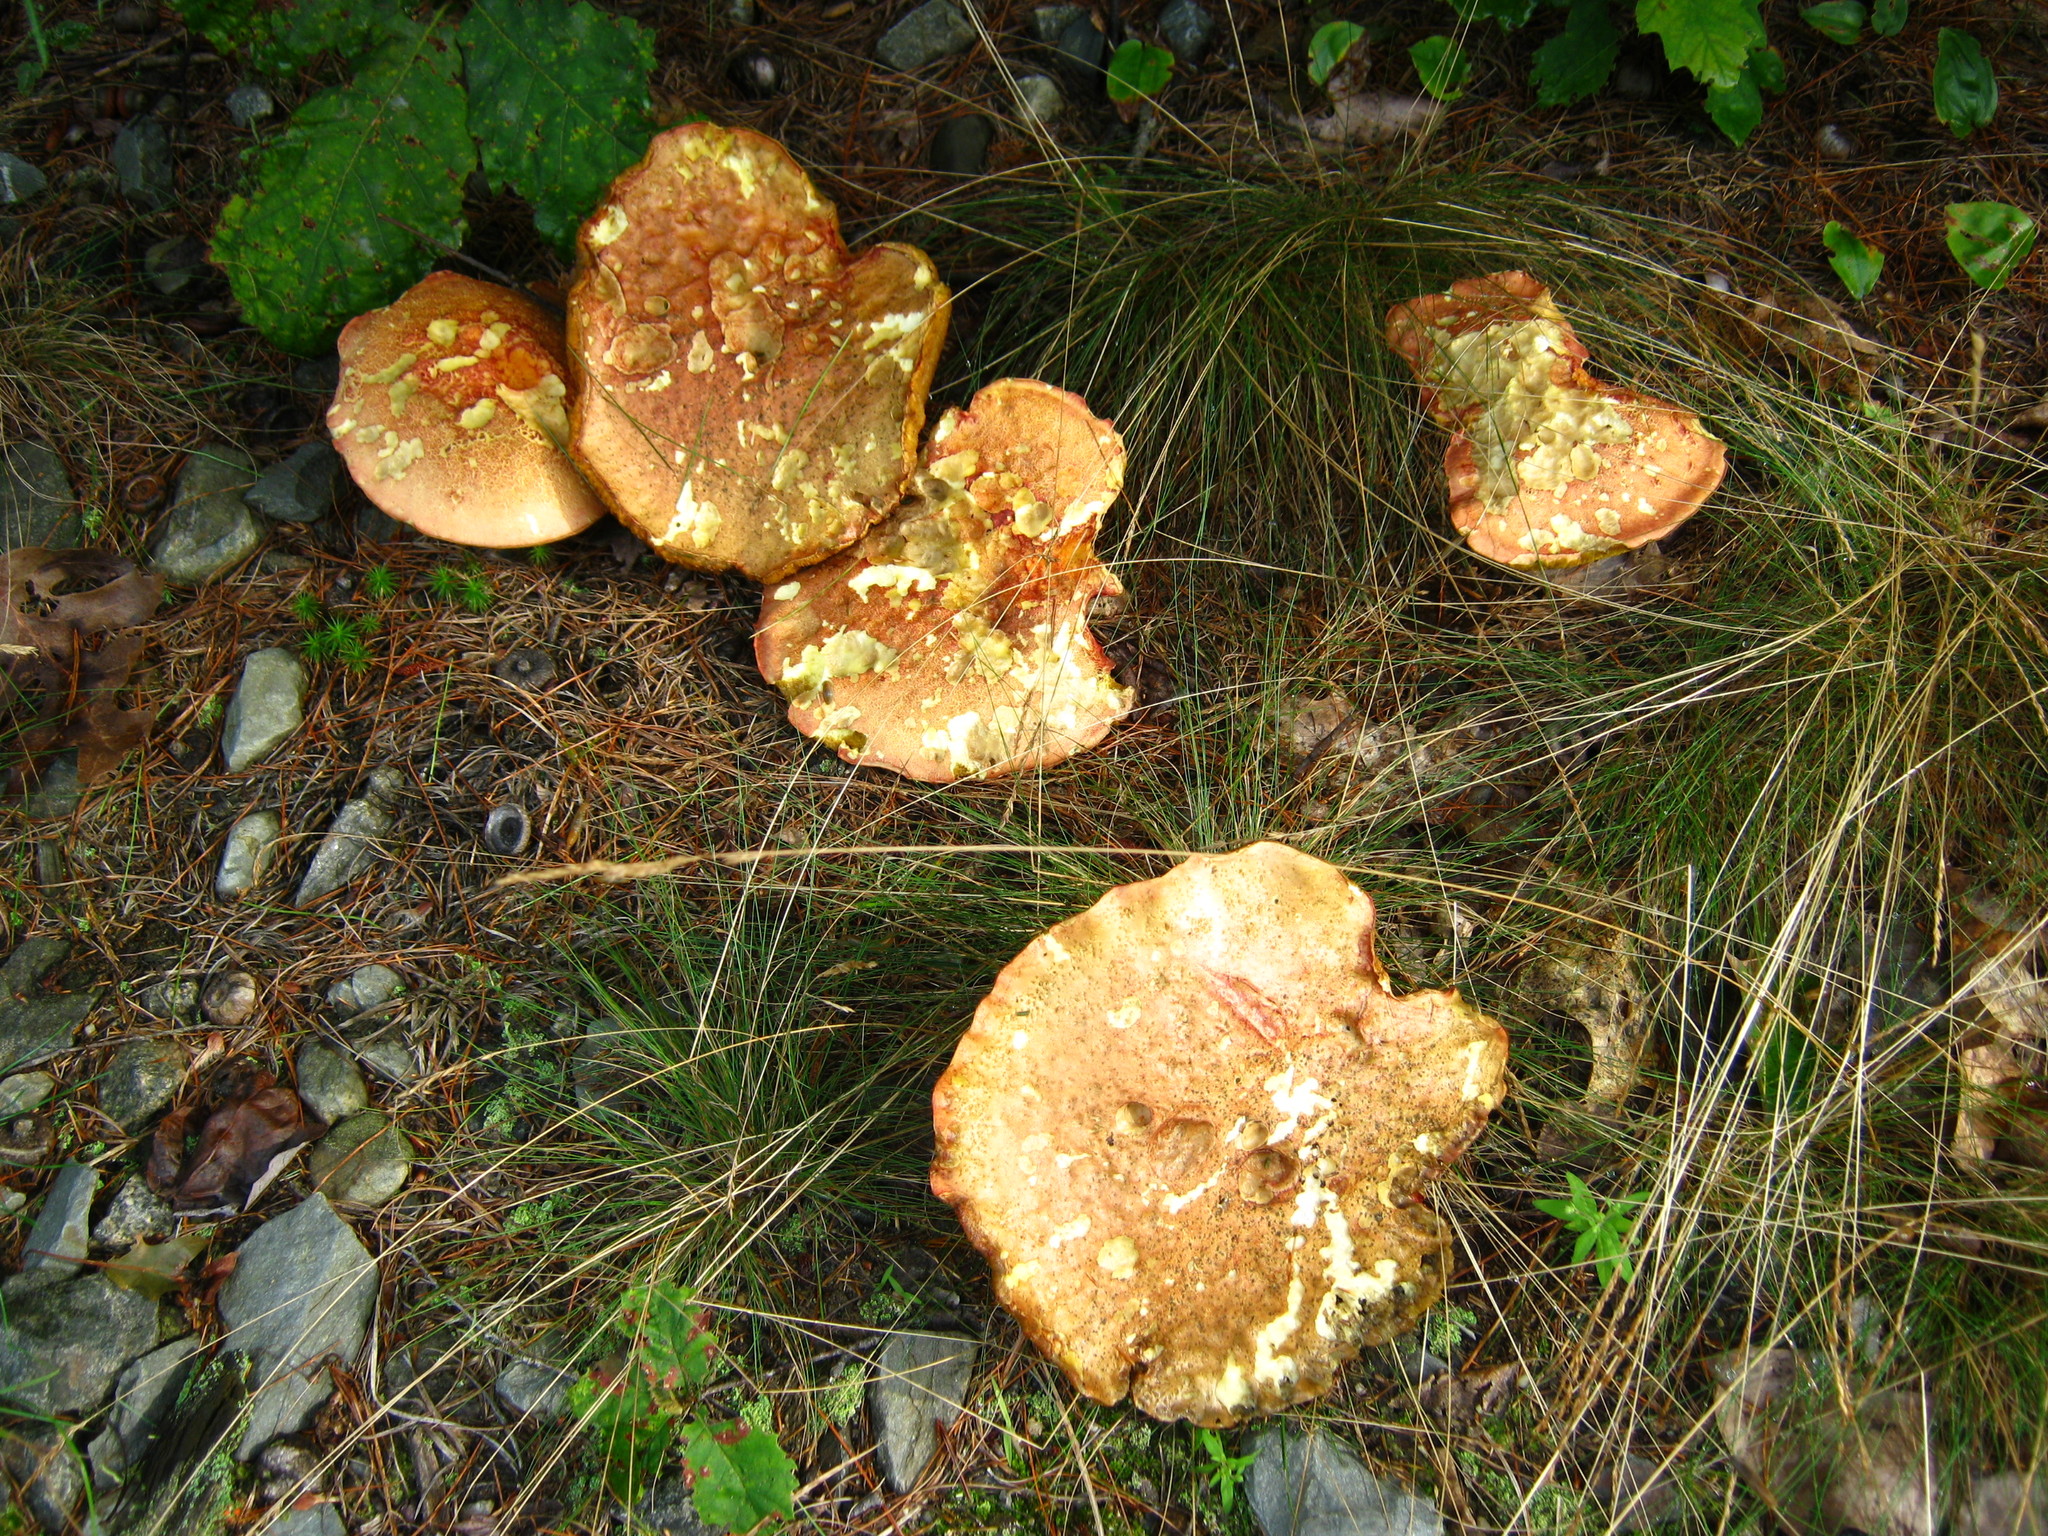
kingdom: Fungi
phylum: Basidiomycota
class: Agaricomycetes
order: Boletales
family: Boletaceae
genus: Baorangia
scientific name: Baorangia bicolor
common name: Two-colored bolete
